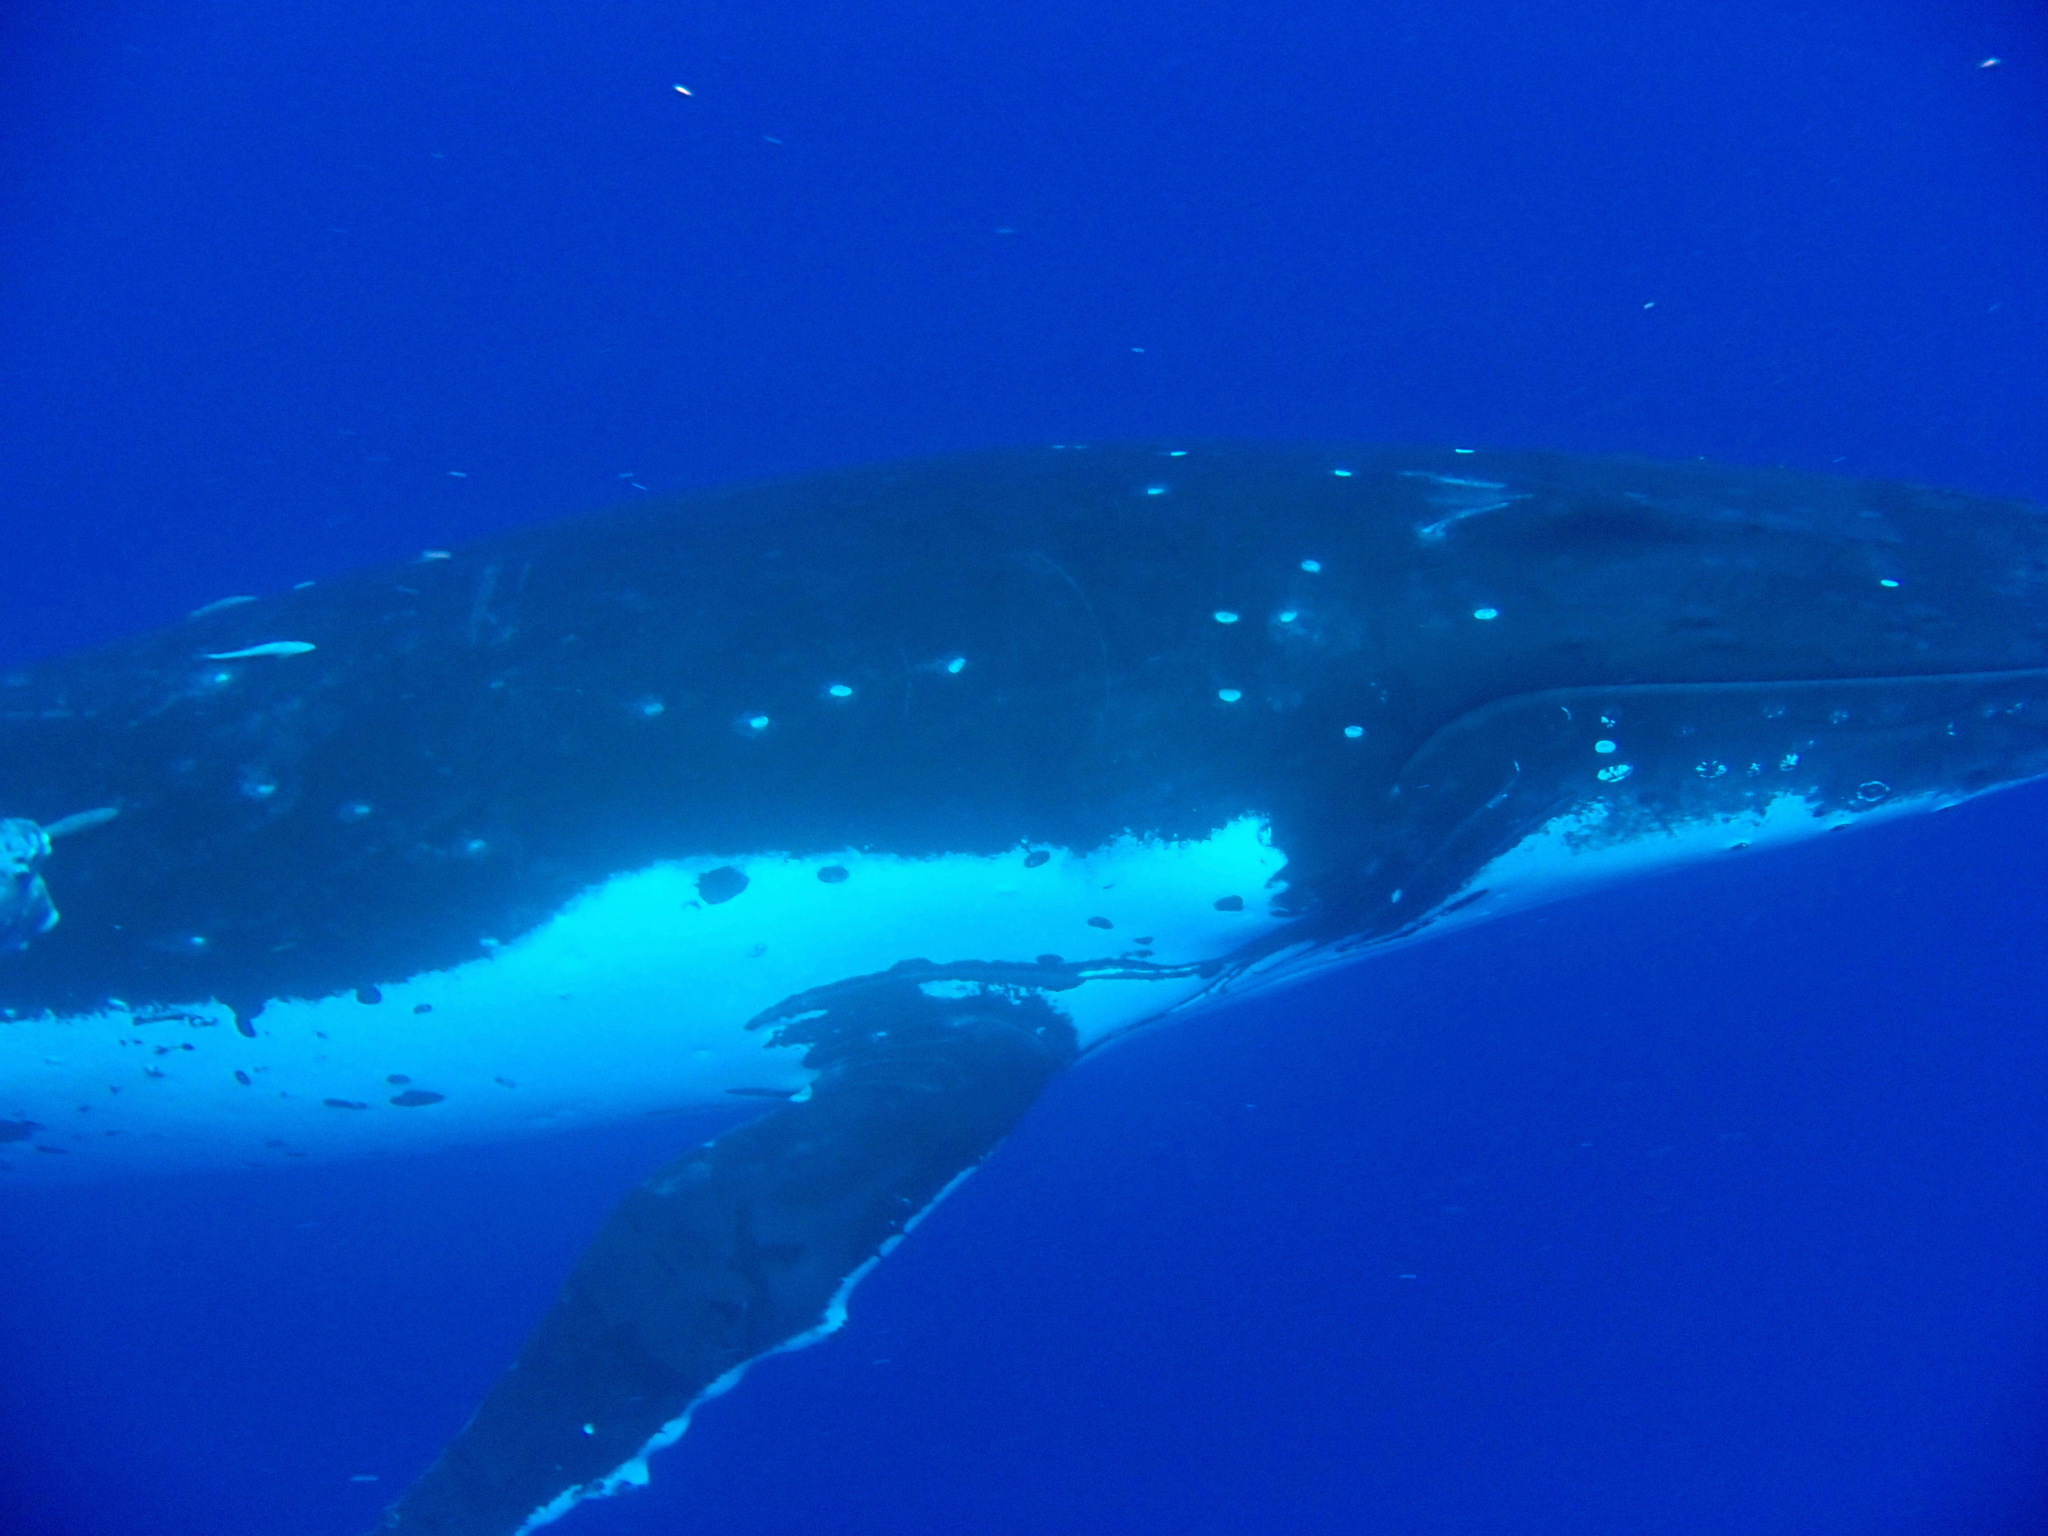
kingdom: Animalia
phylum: Chordata
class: Mammalia
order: Cetacea
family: Balaenopteridae
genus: Megaptera
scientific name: Megaptera novaeangliae
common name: Humpback whale
